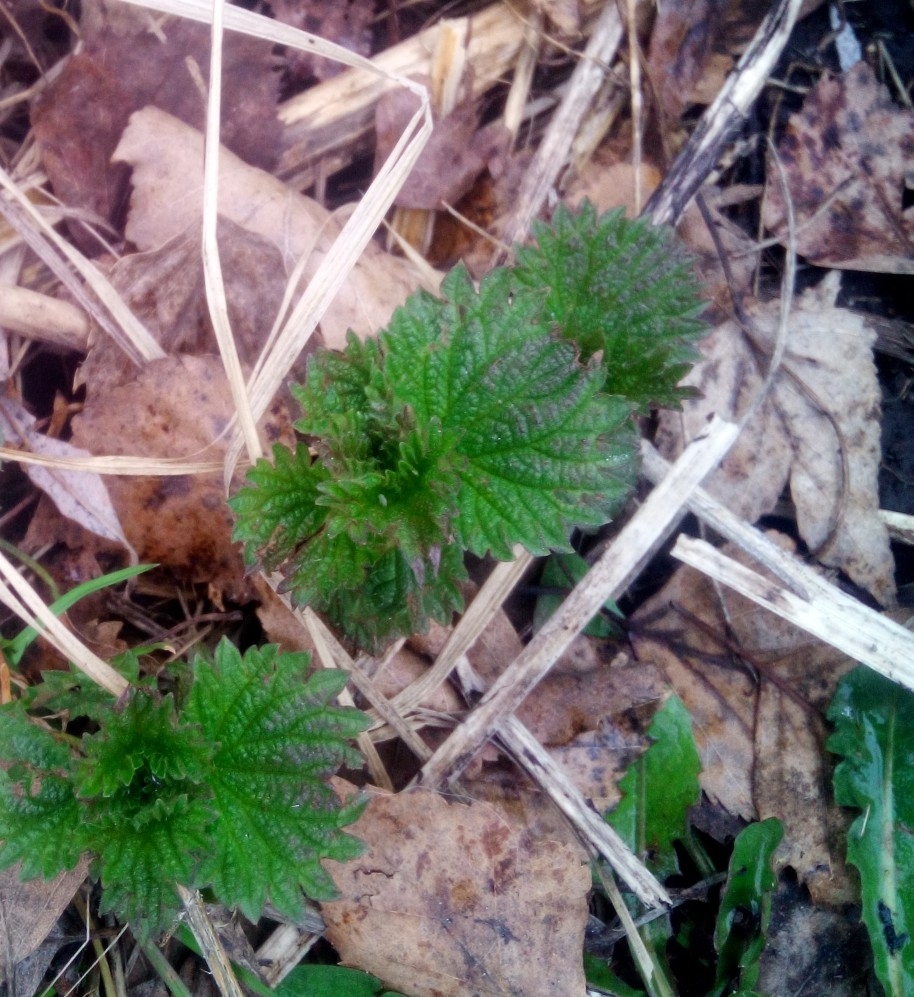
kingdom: Plantae
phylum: Tracheophyta
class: Magnoliopsida
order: Rosales
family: Urticaceae
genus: Urtica
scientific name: Urtica dioica
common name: Common nettle
